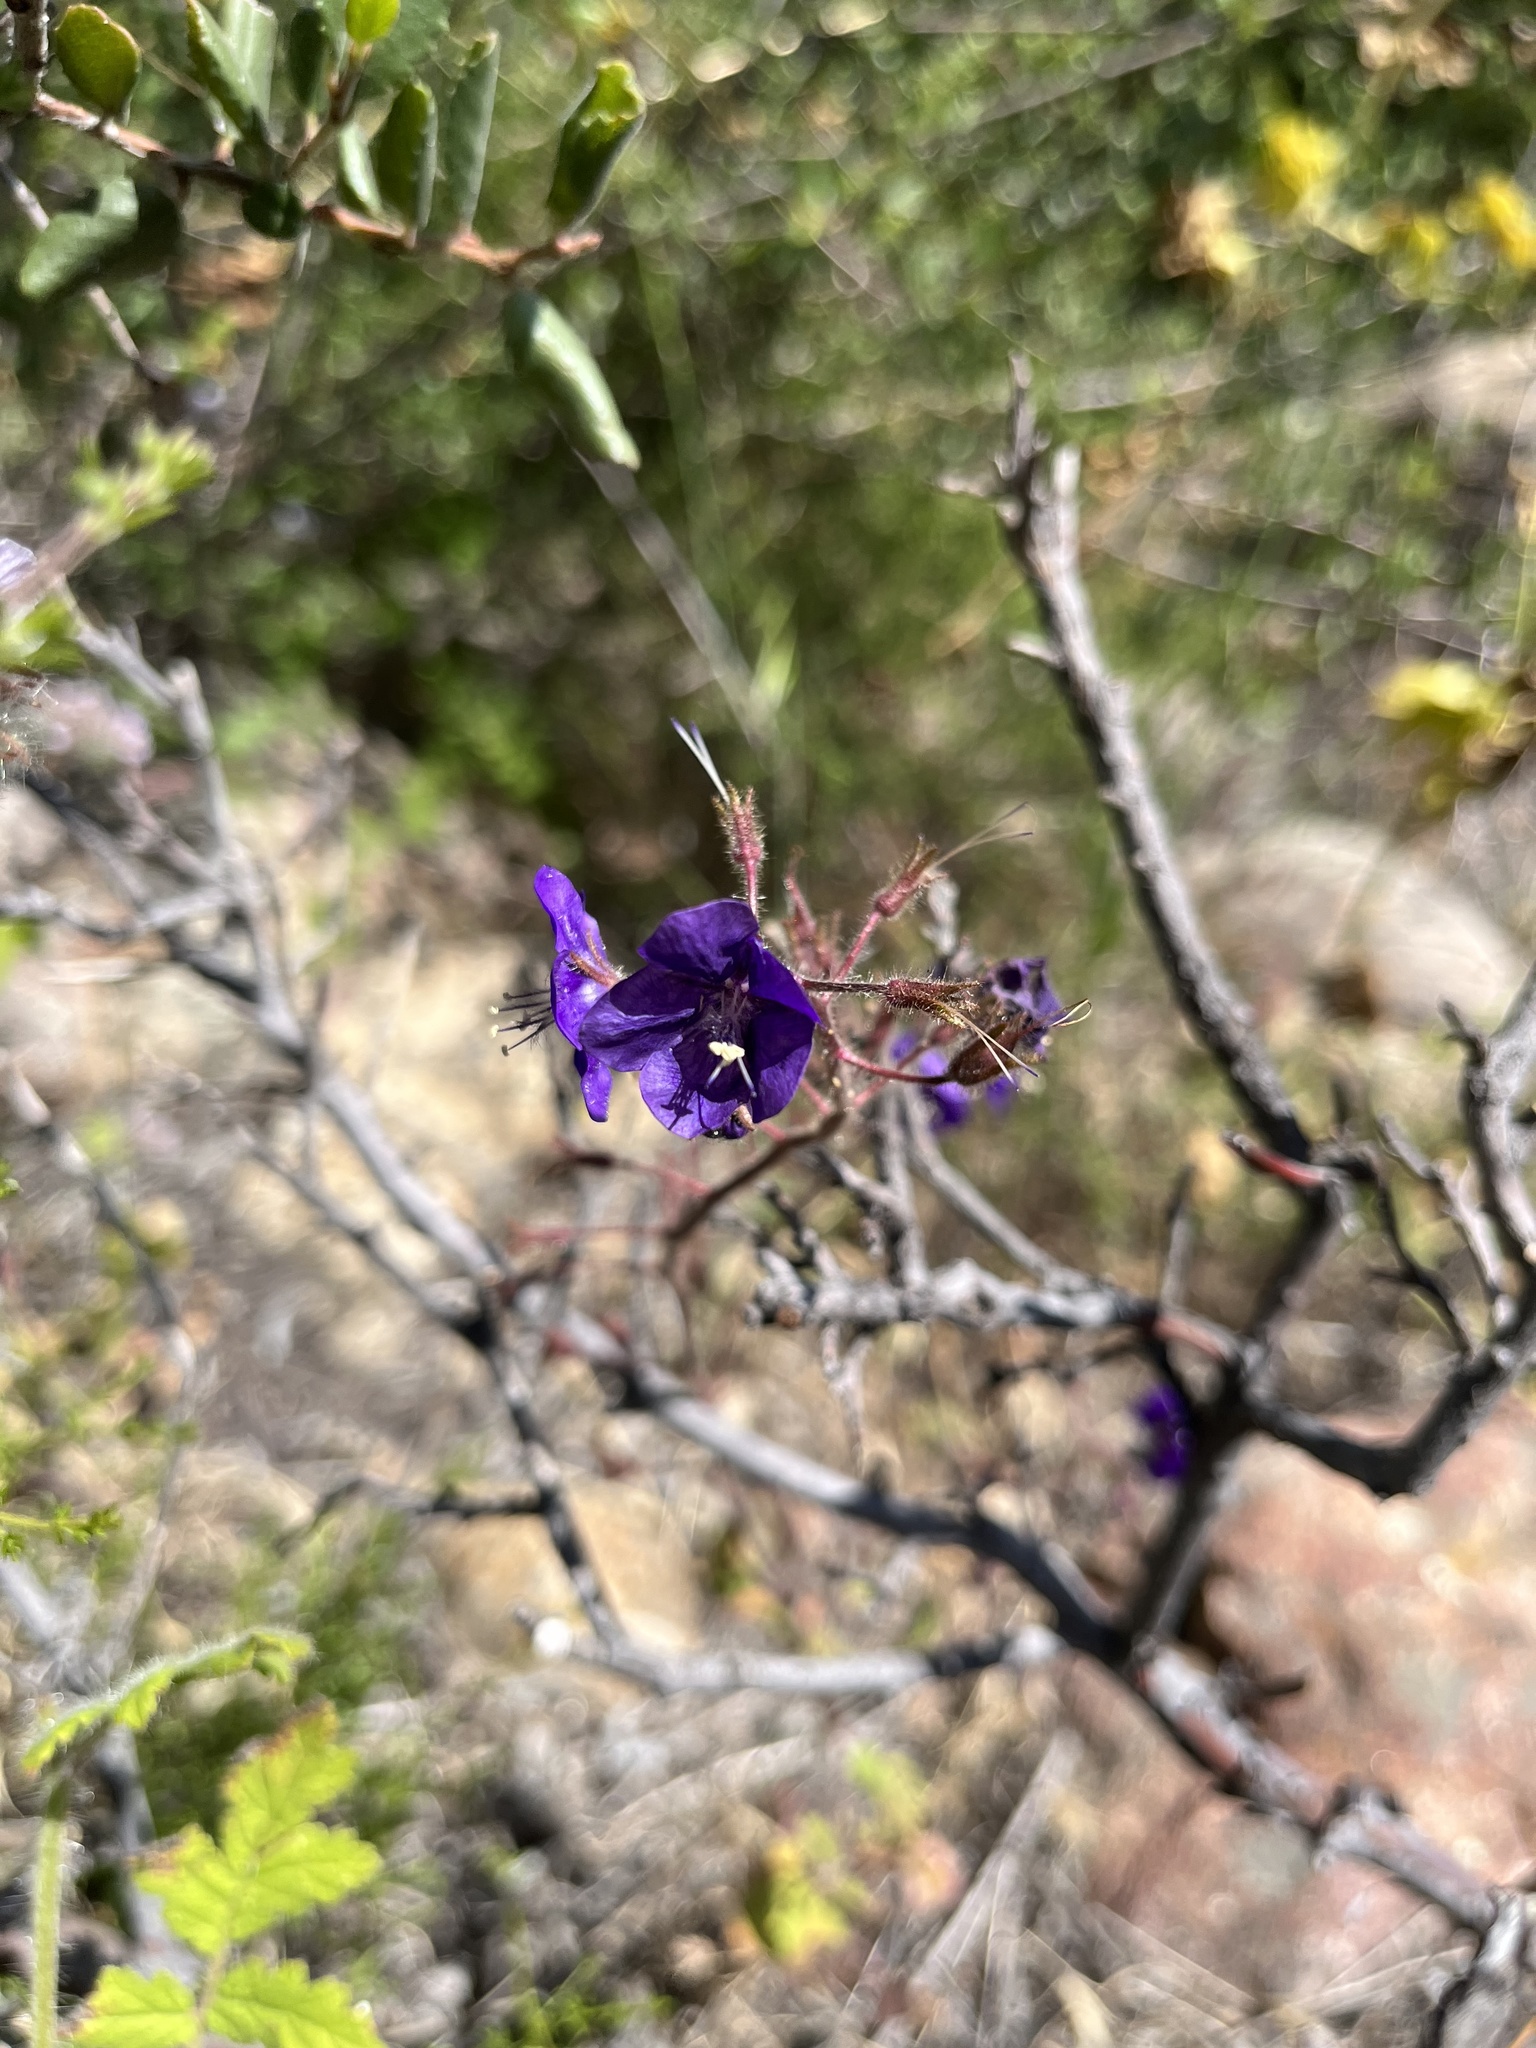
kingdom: Plantae
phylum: Tracheophyta
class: Magnoliopsida
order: Boraginales
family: Hydrophyllaceae
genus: Phacelia
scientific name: Phacelia parryi
